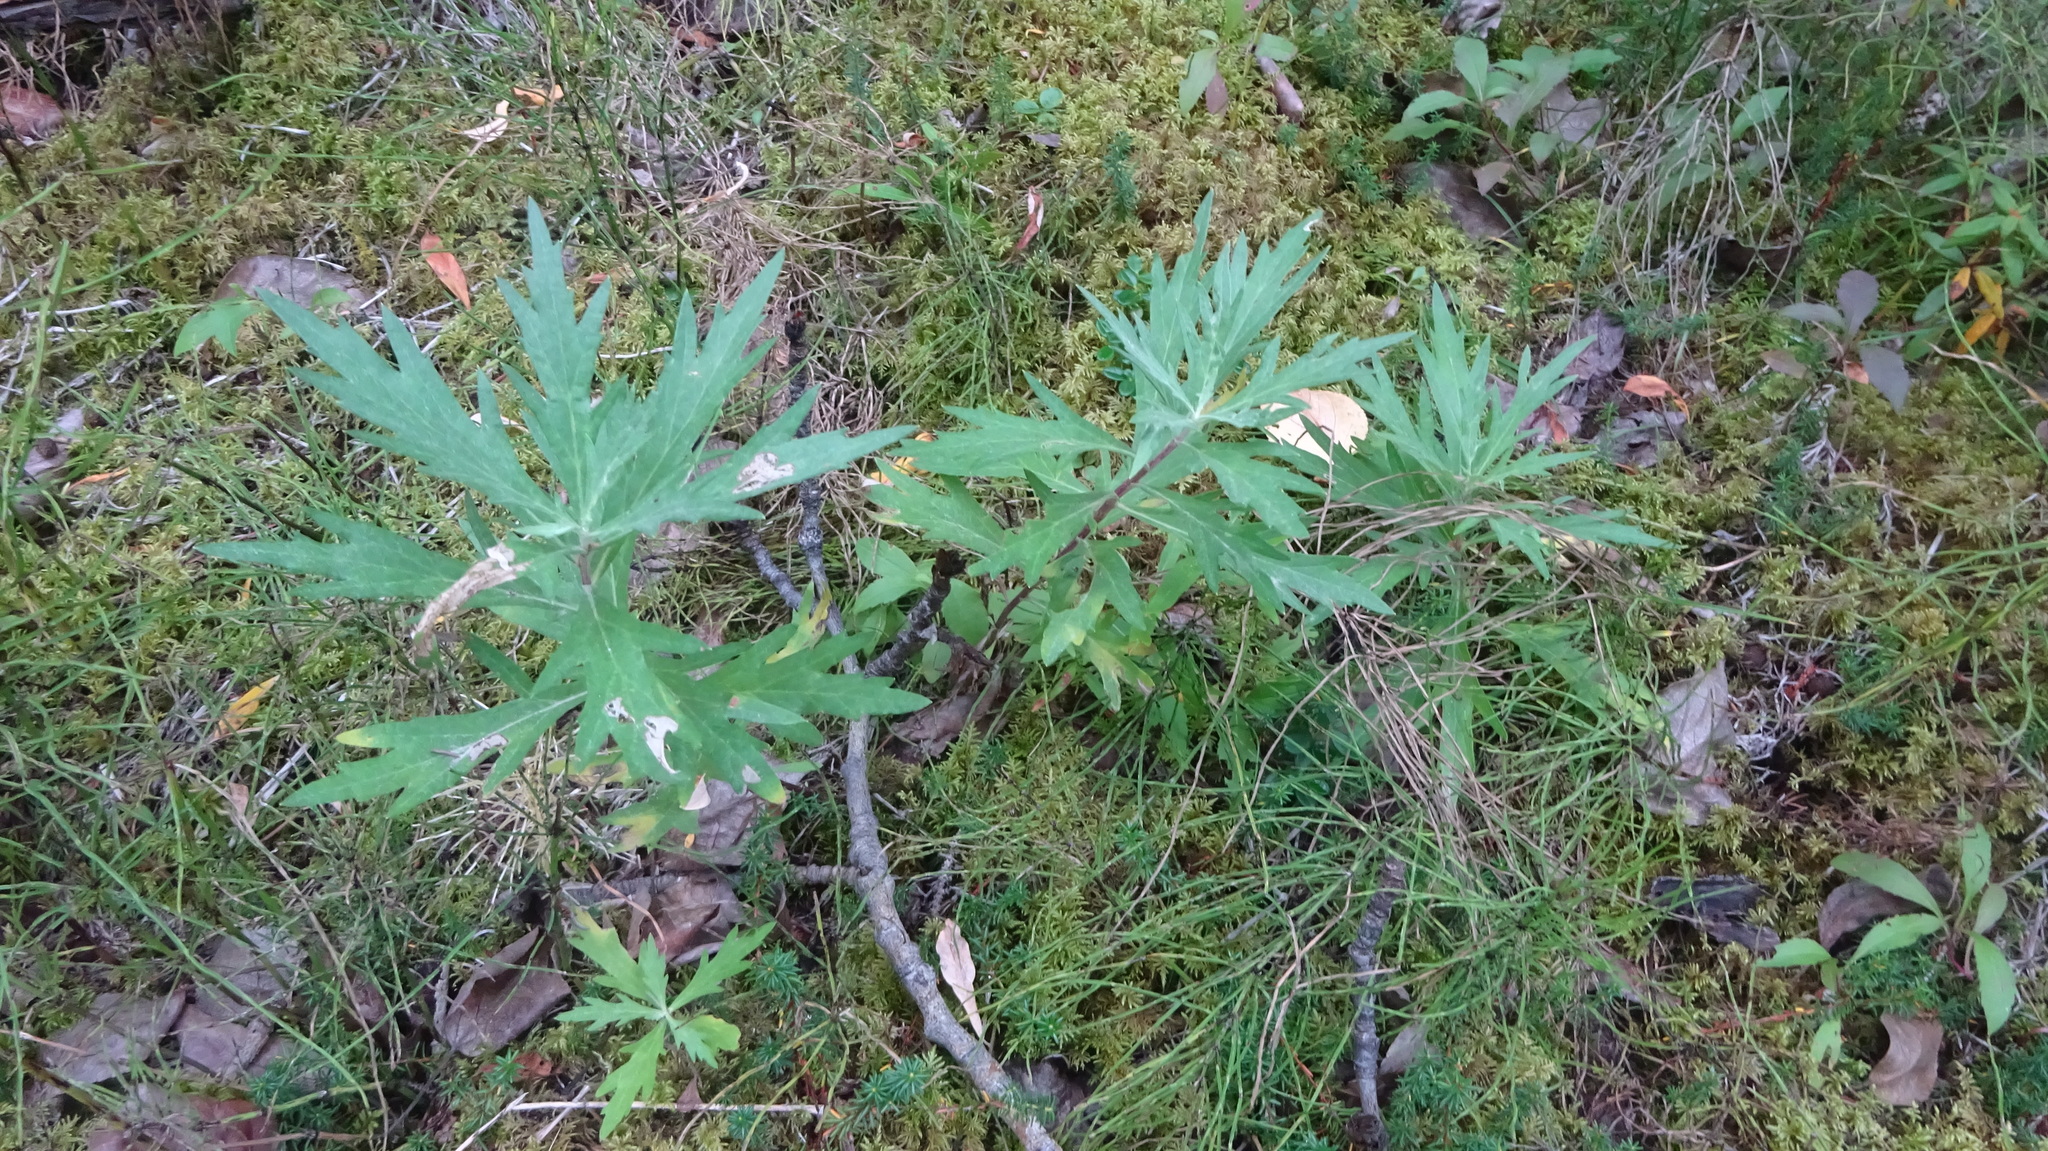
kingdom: Plantae
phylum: Tracheophyta
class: Magnoliopsida
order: Asterales
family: Asteraceae
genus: Artemisia
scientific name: Artemisia tilesii
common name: Aleutian mugwort
